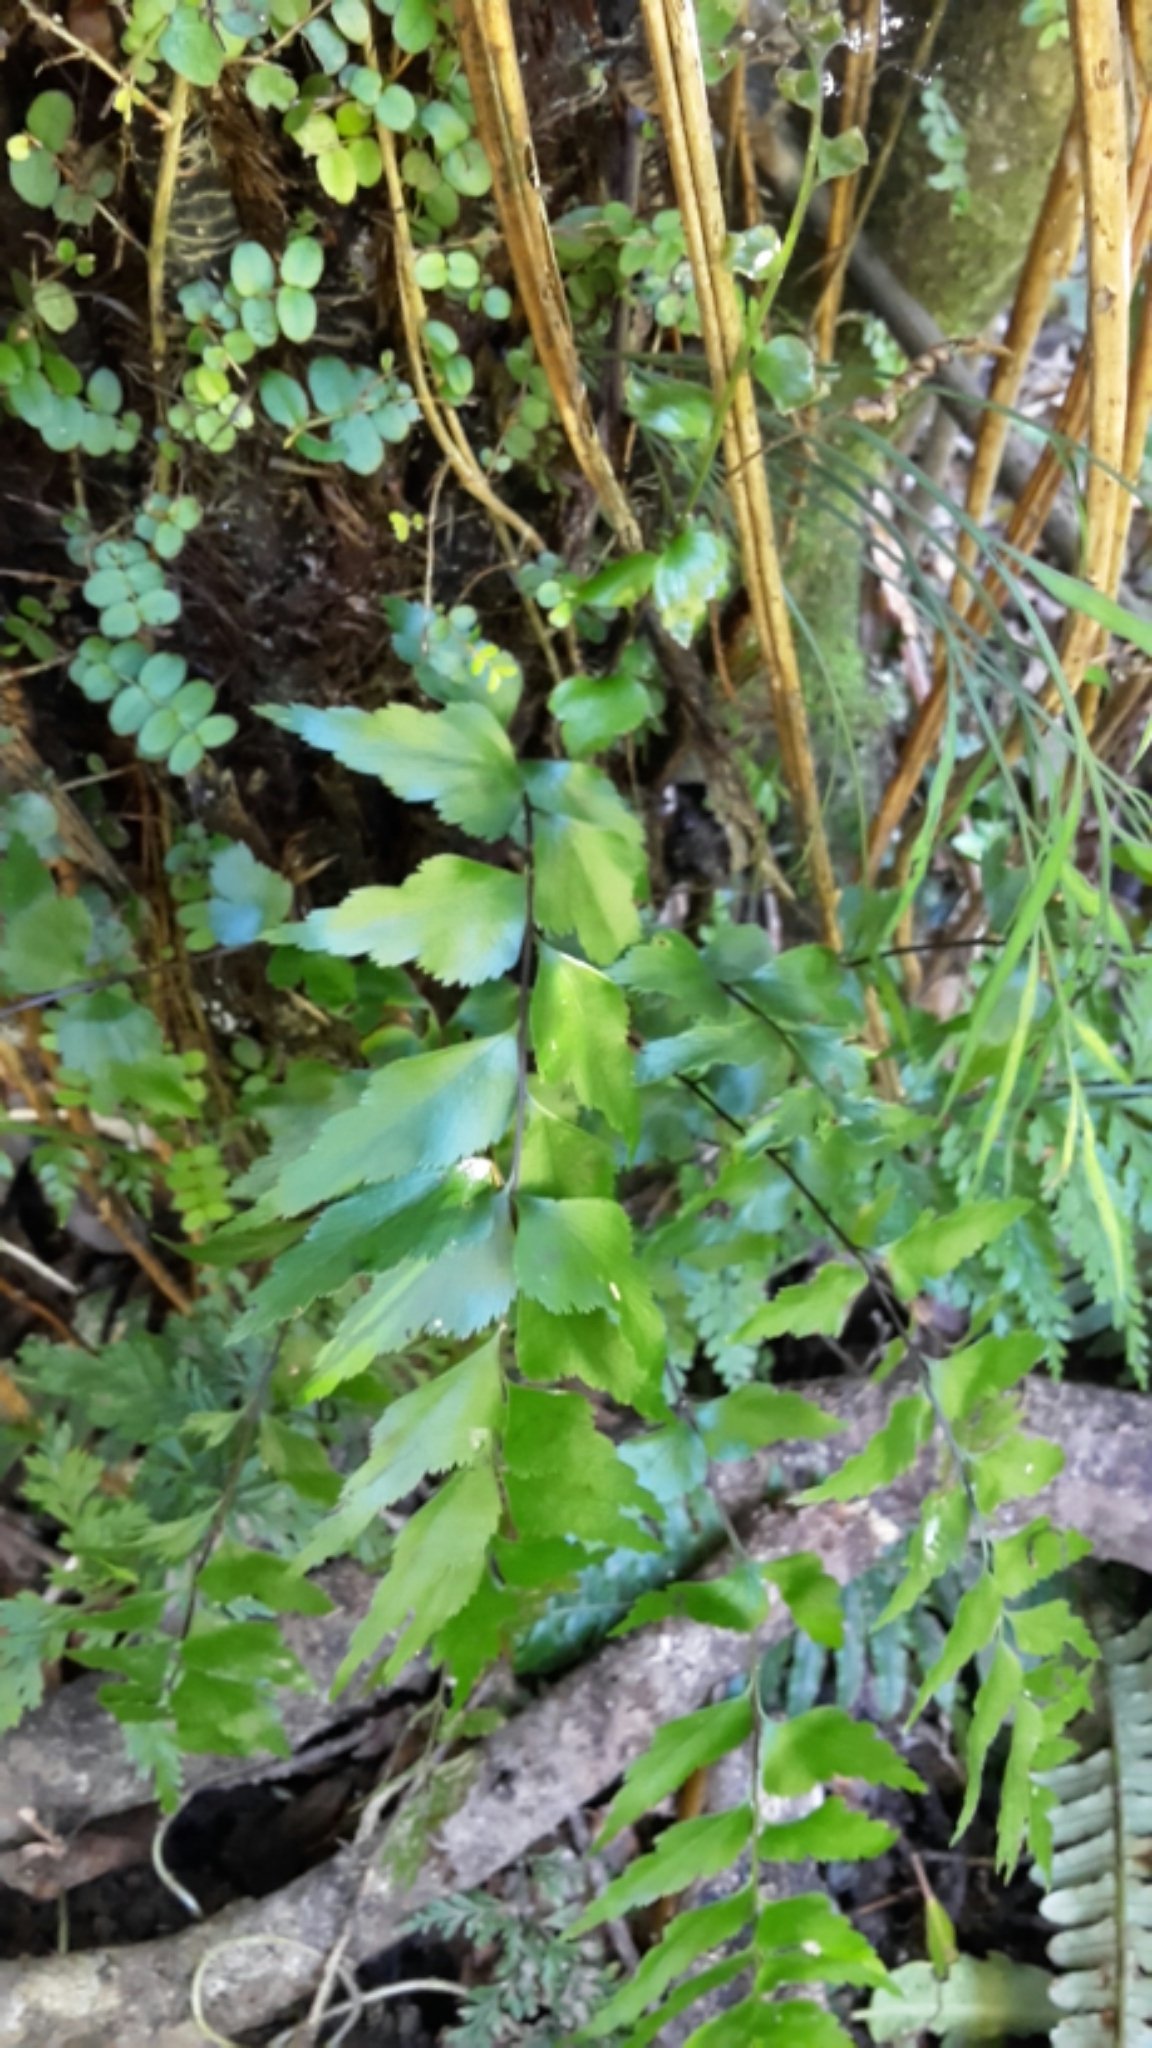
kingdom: Plantae
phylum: Tracheophyta
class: Polypodiopsida
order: Polypodiales
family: Aspleniaceae
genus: Asplenium
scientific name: Asplenium polyodon
